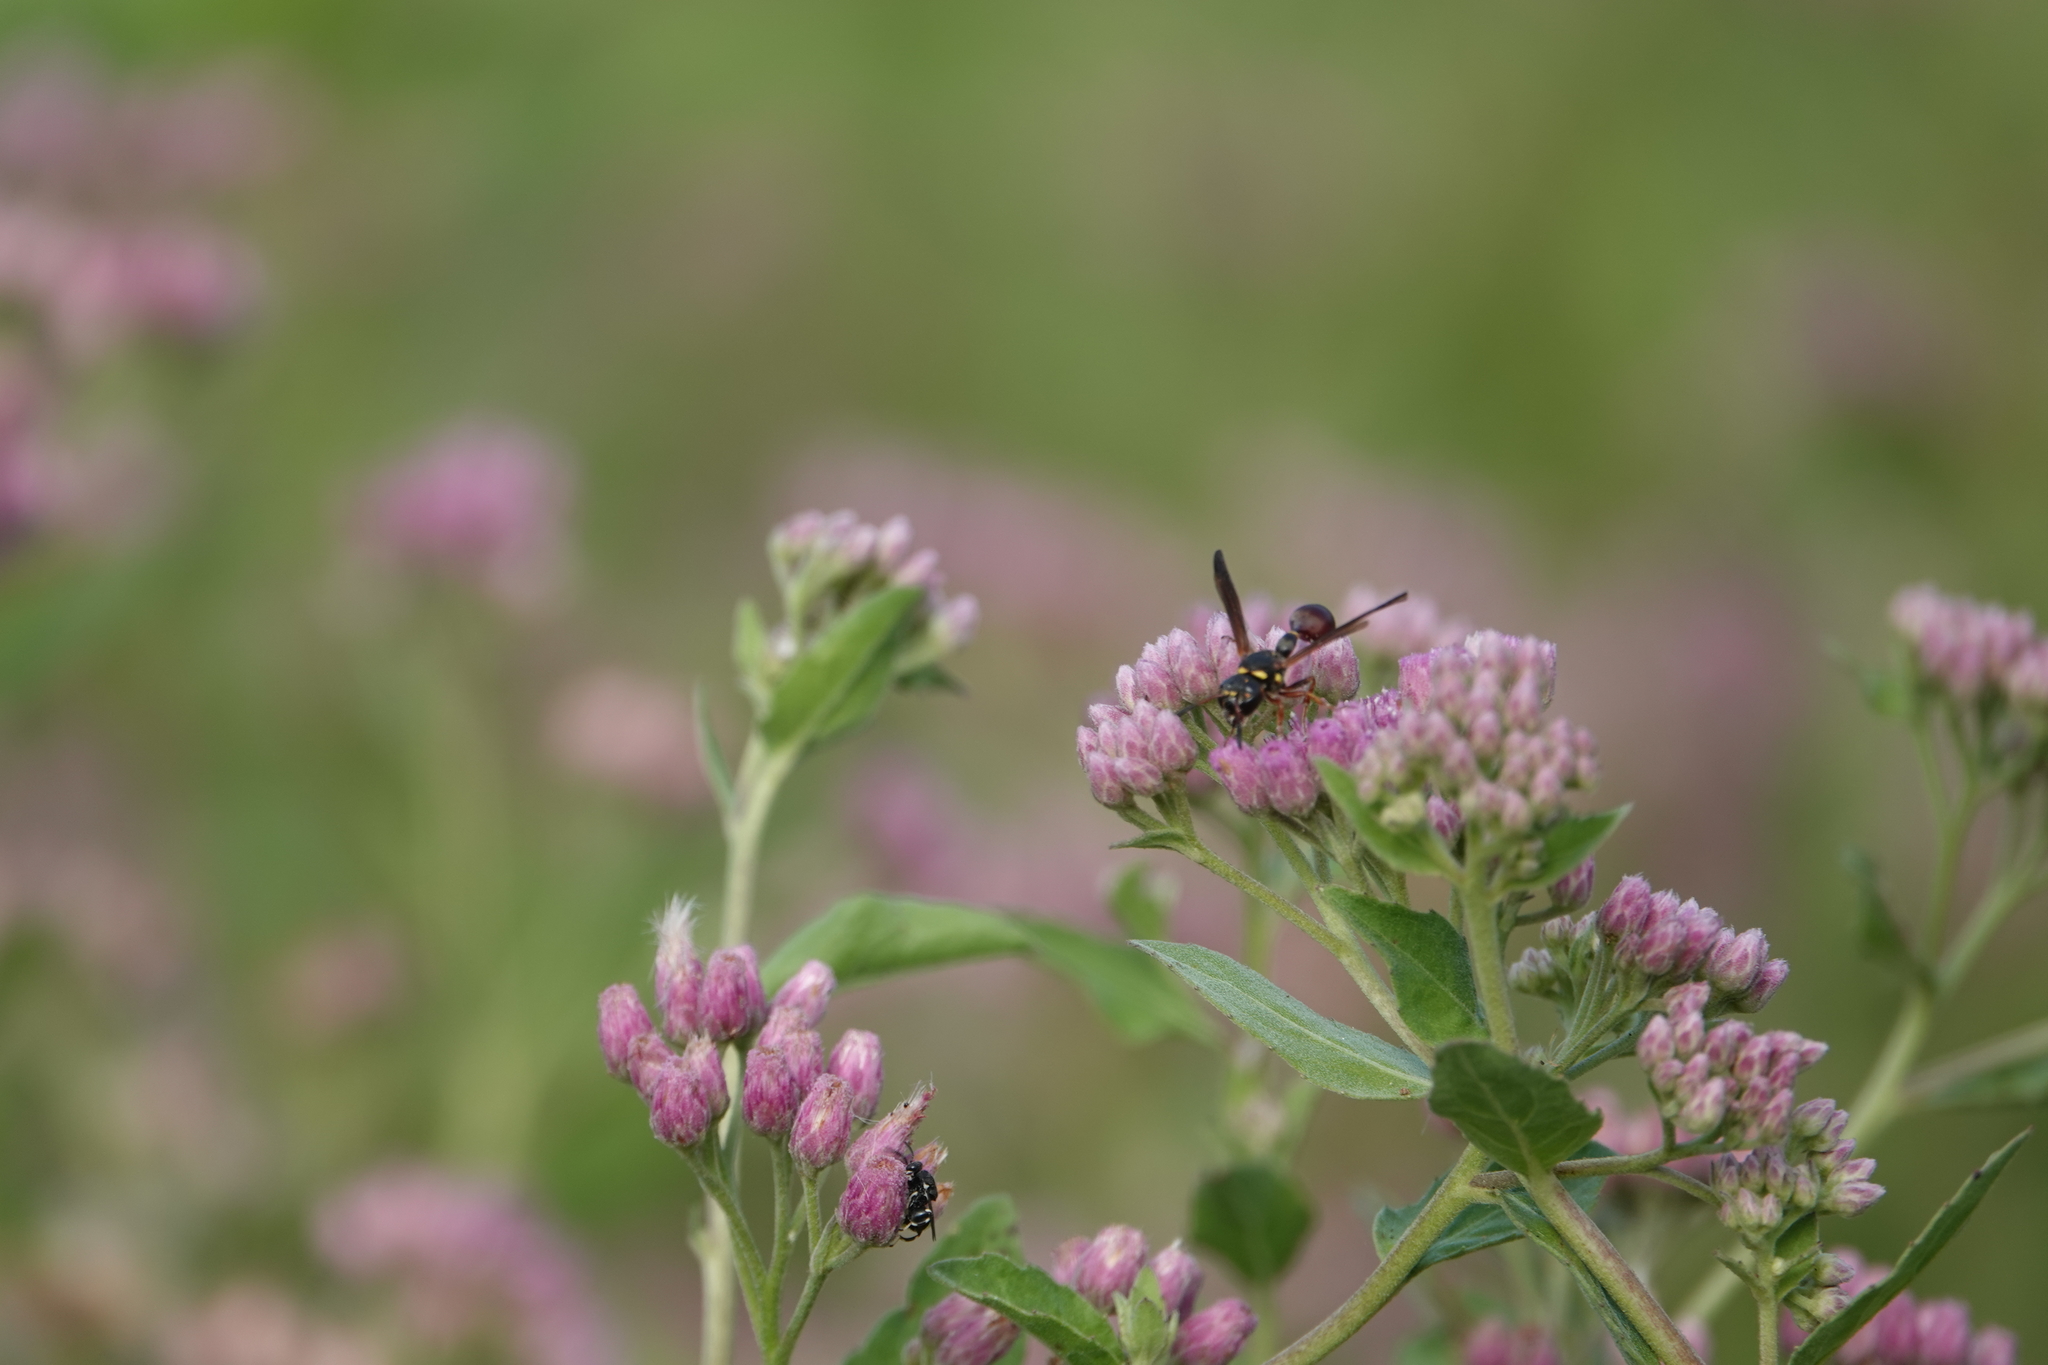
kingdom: Animalia
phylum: Arthropoda
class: Insecta
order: Hymenoptera
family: Eumenidae
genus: Zethus
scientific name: Zethus slossonae
